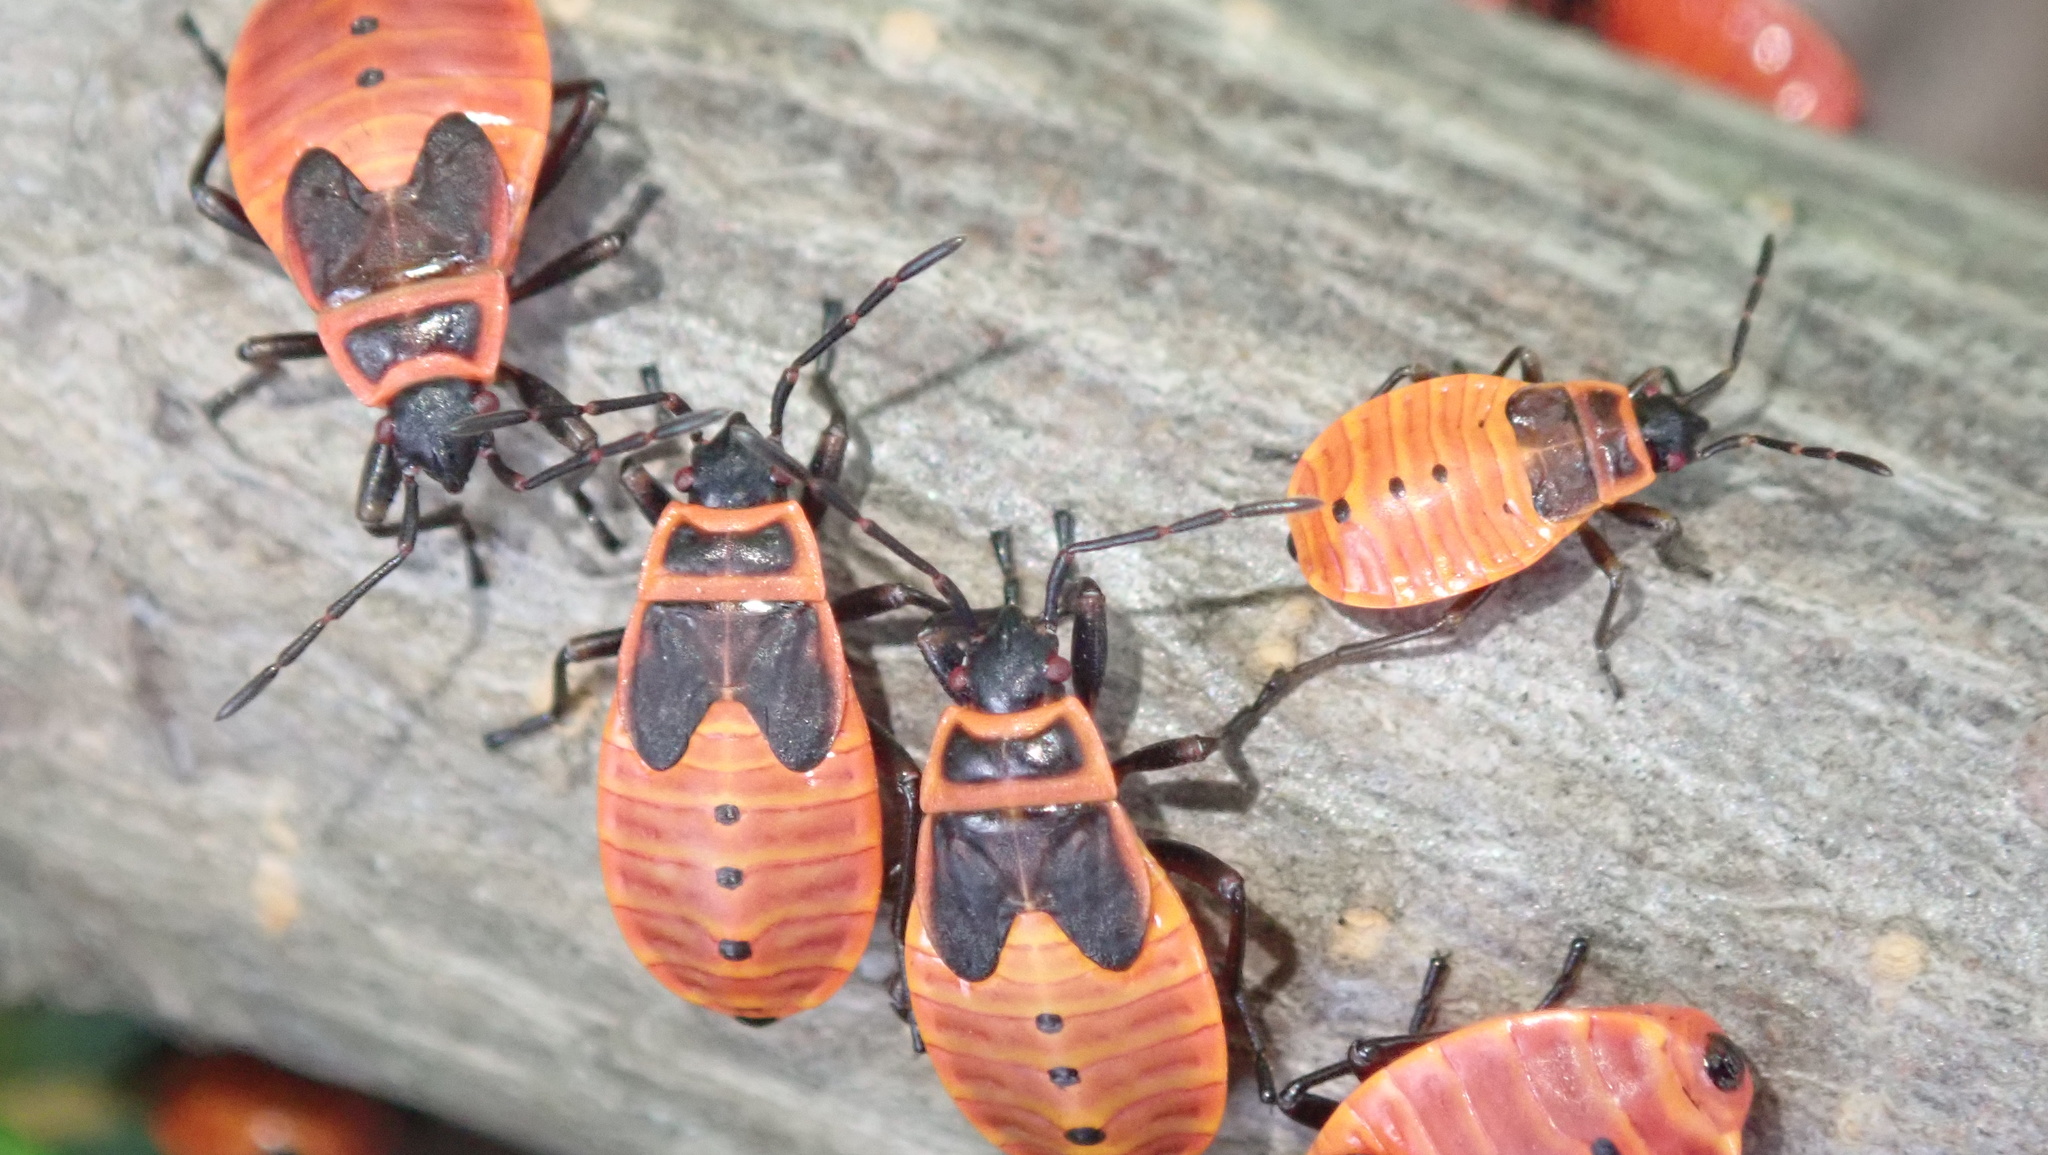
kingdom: Animalia
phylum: Arthropoda
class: Insecta
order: Hemiptera
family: Pyrrhocoridae
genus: Pyrrhocoris
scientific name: Pyrrhocoris apterus
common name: Firebug
